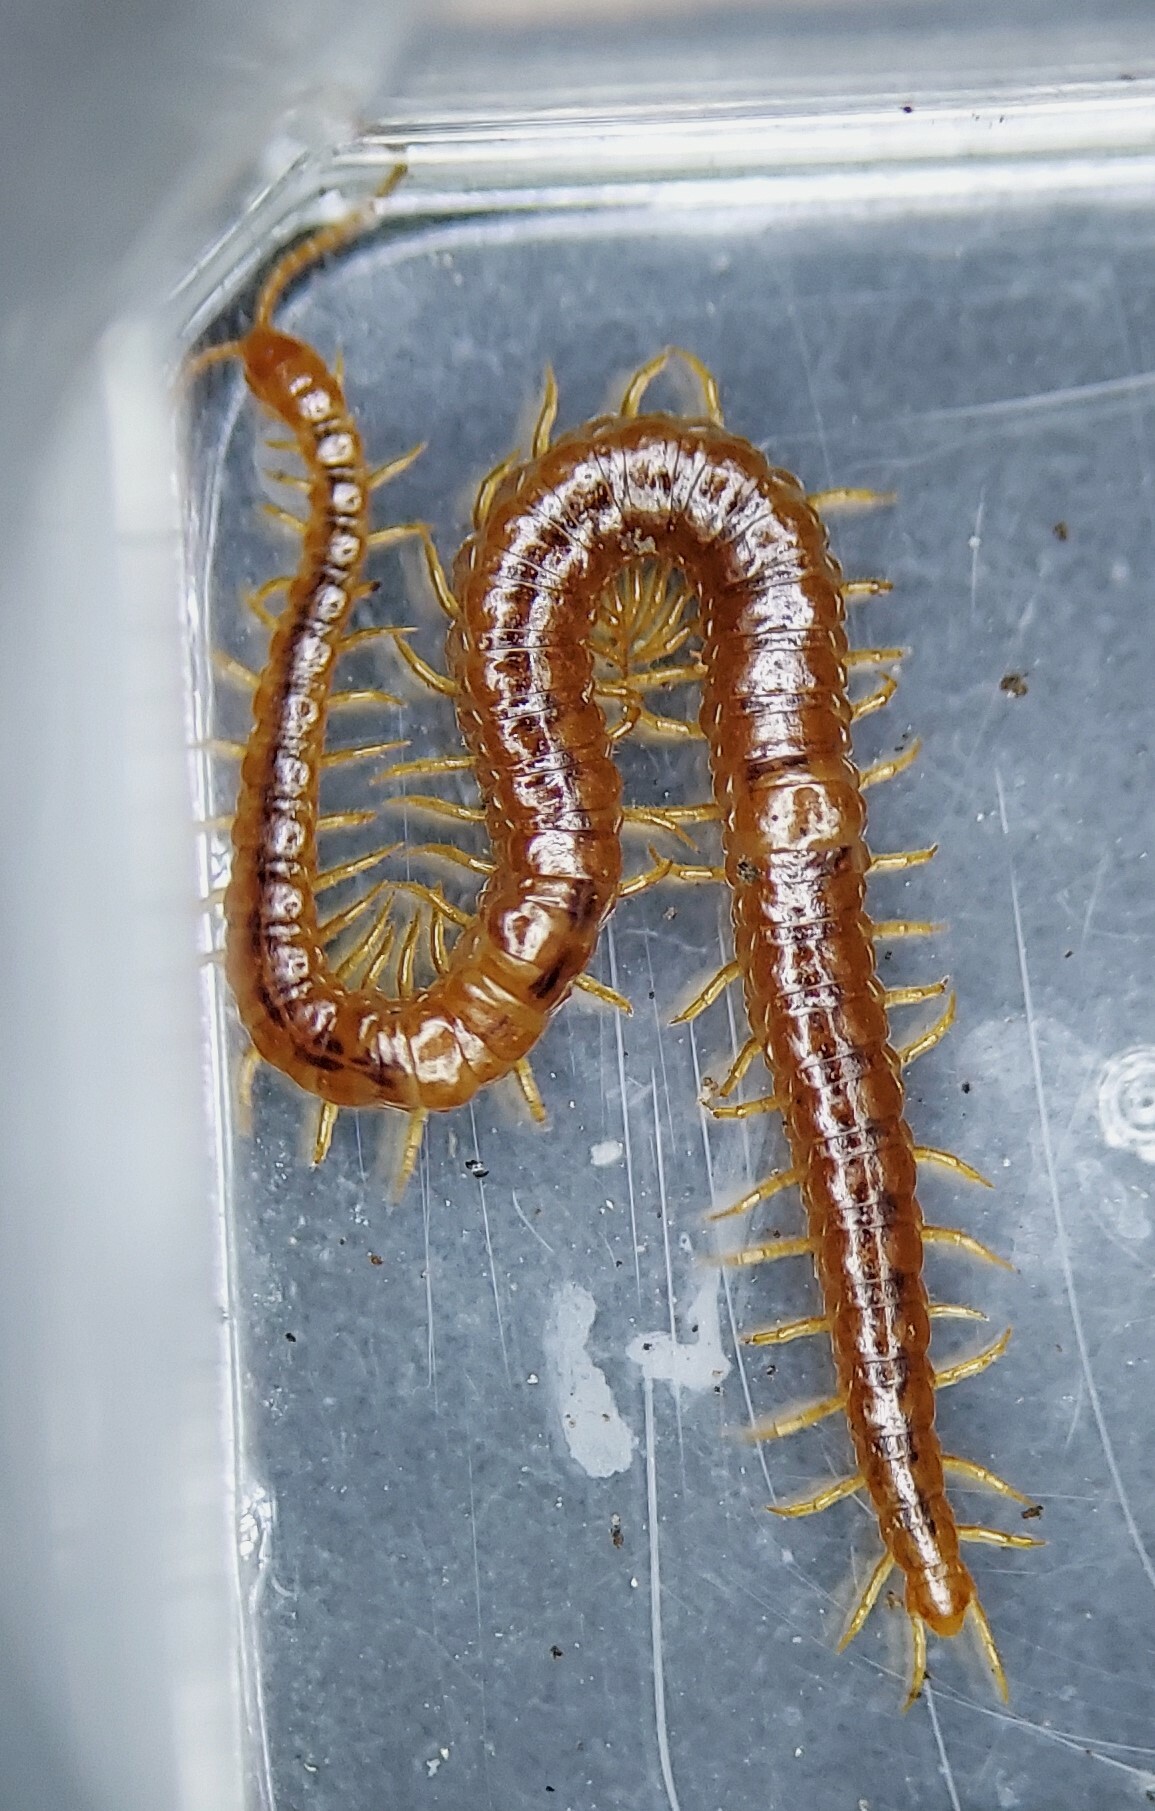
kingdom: Animalia
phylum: Arthropoda
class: Chilopoda
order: Geophilomorpha
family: Linotaeniidae
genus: Strigamia
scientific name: Strigamia branneri
